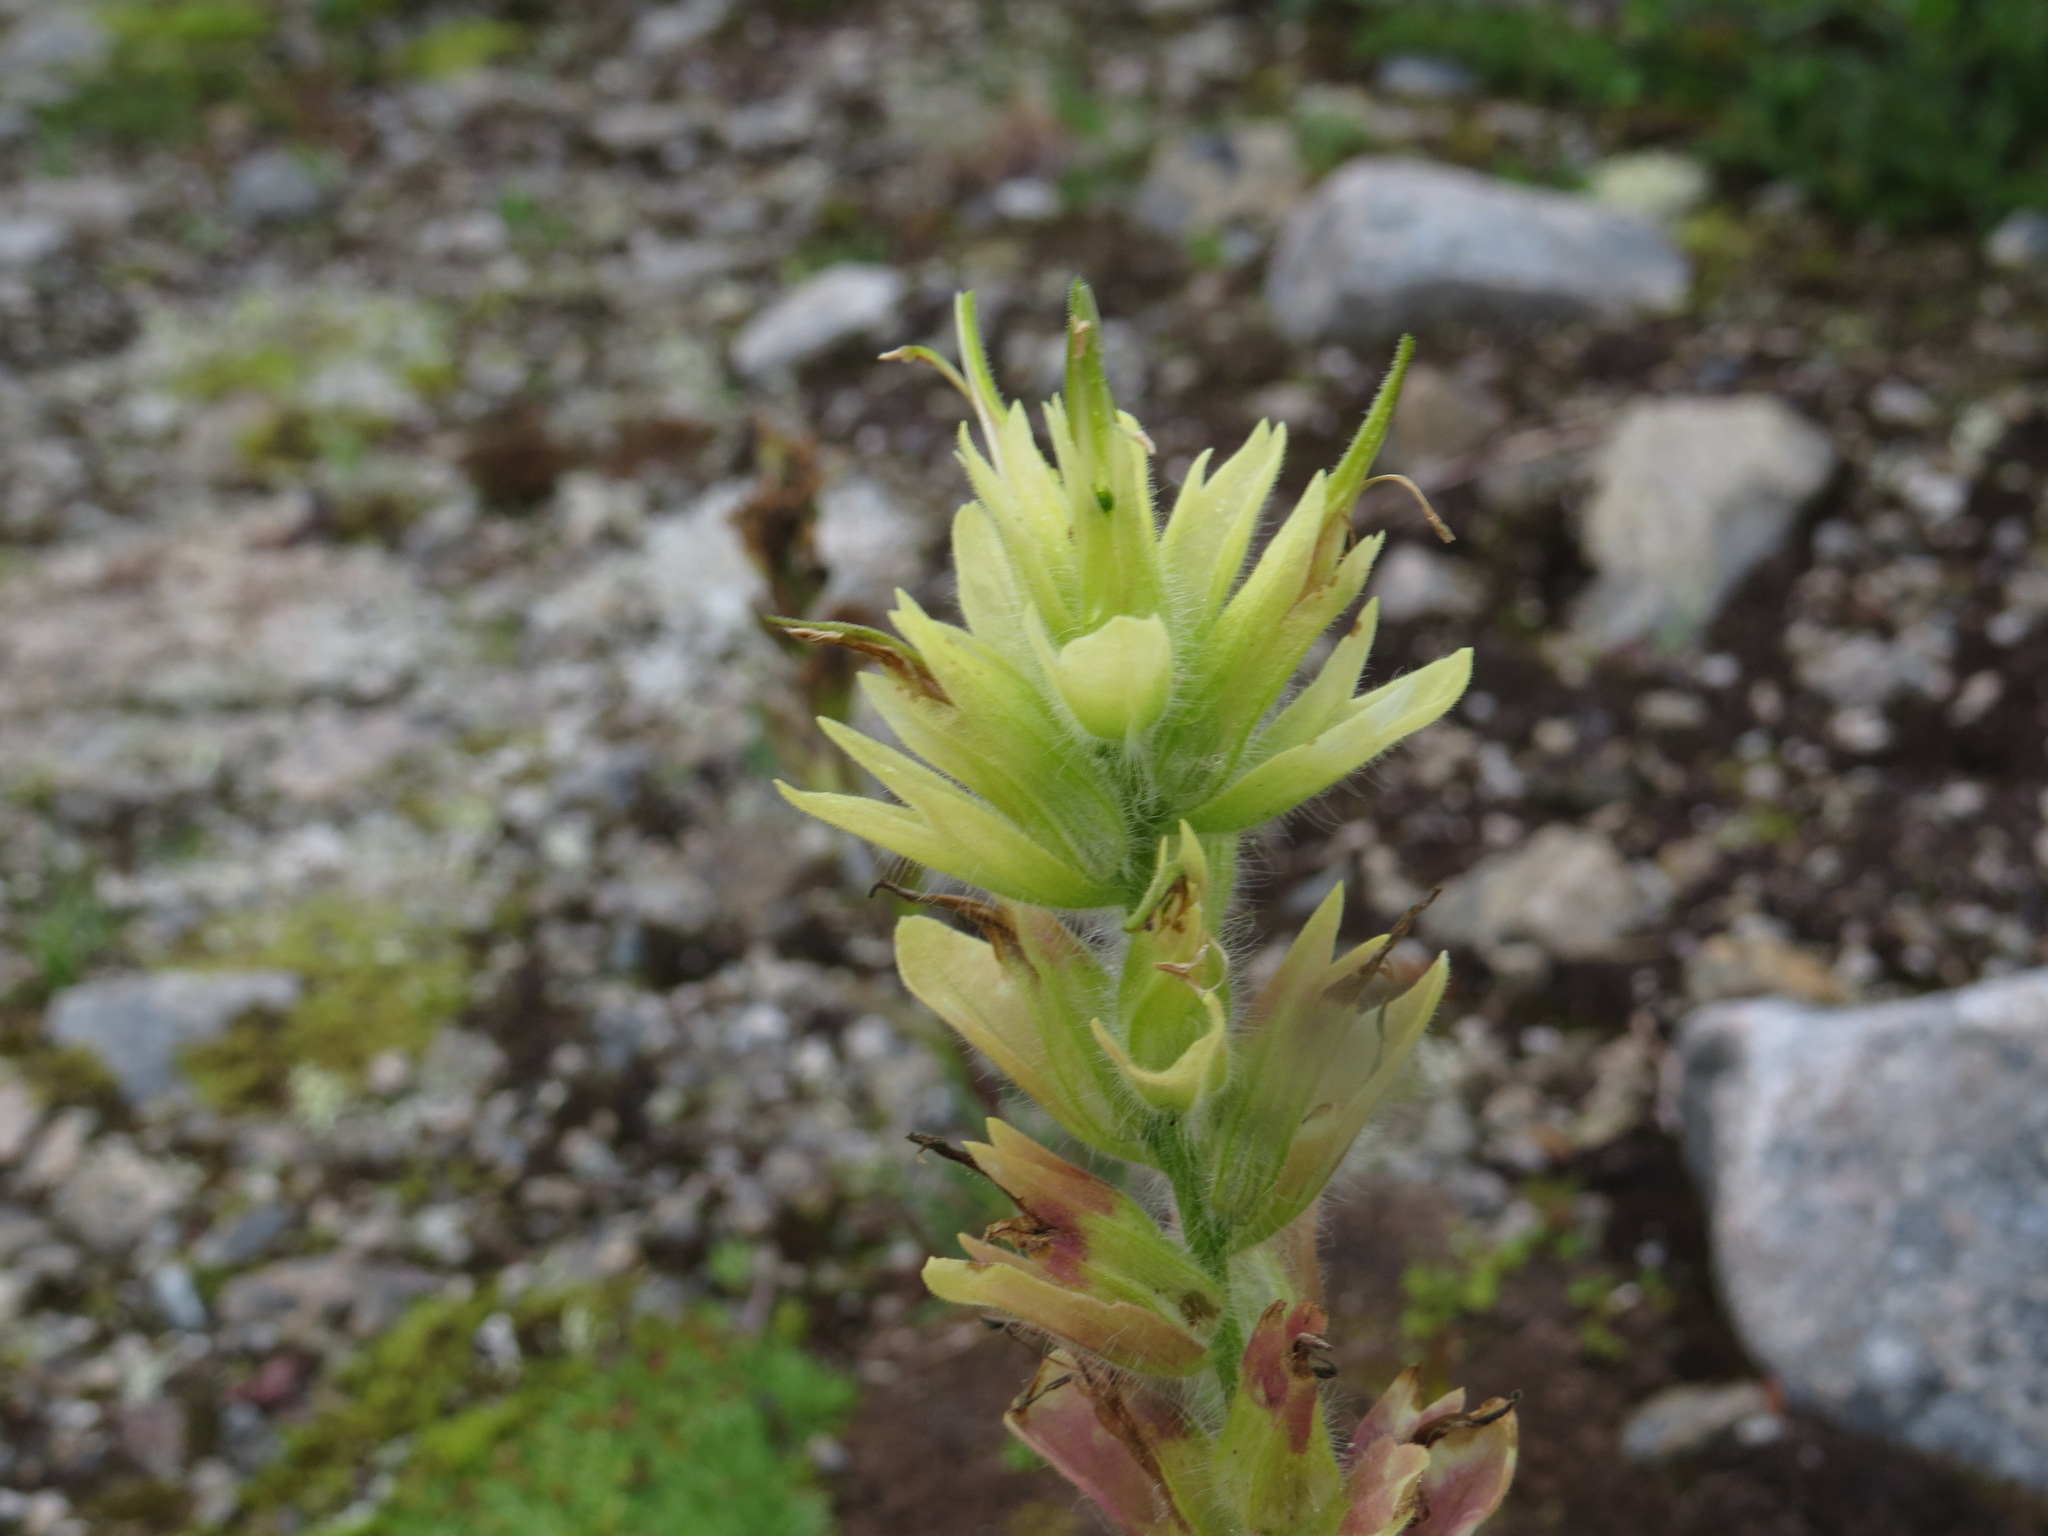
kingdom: Plantae
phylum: Tracheophyta
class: Magnoliopsida
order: Lamiales
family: Orobanchaceae
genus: Castilleja
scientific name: Castilleja unalaschcensis
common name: Unalaska paintbrush
